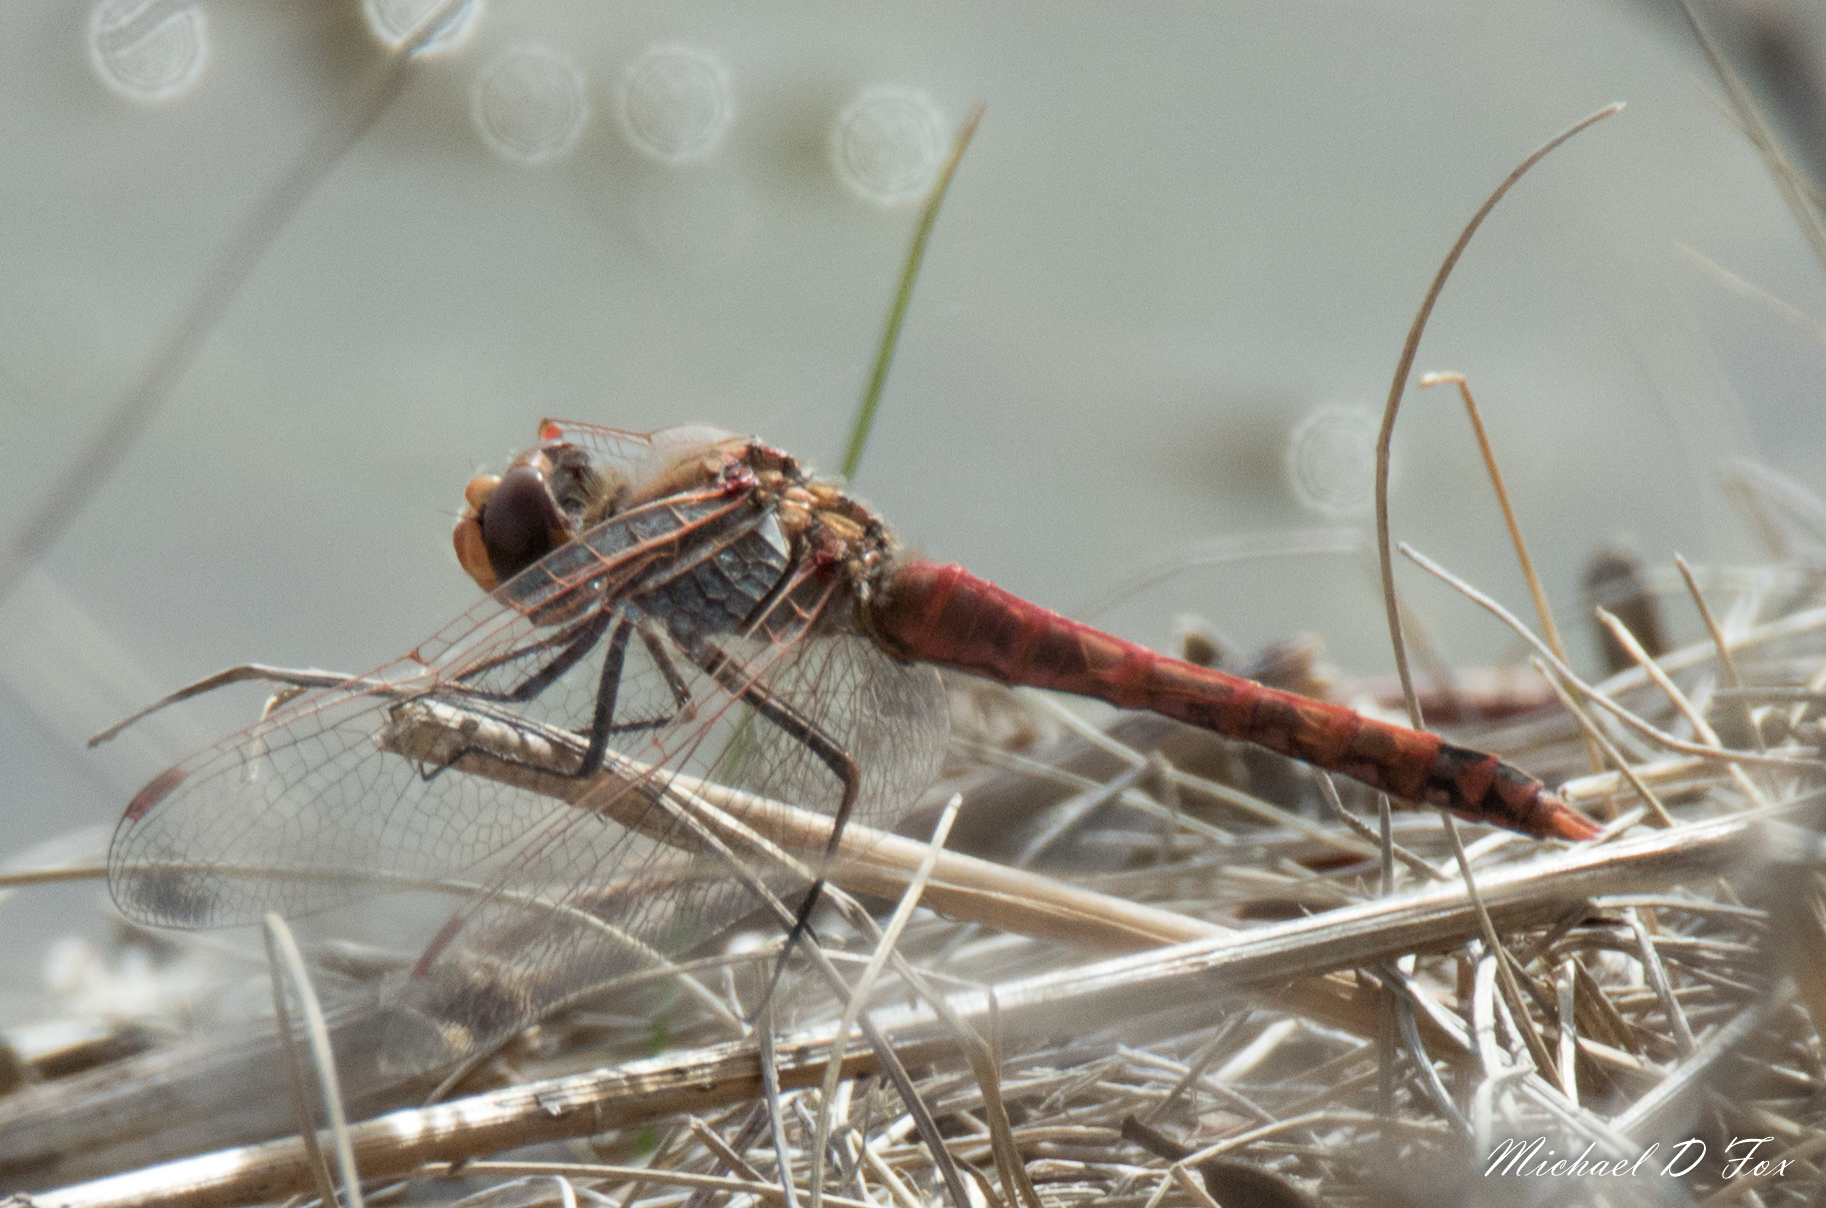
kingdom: Animalia
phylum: Arthropoda
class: Insecta
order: Odonata
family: Libellulidae
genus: Sympetrum
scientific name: Sympetrum corruptum
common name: Variegated meadowhawk
